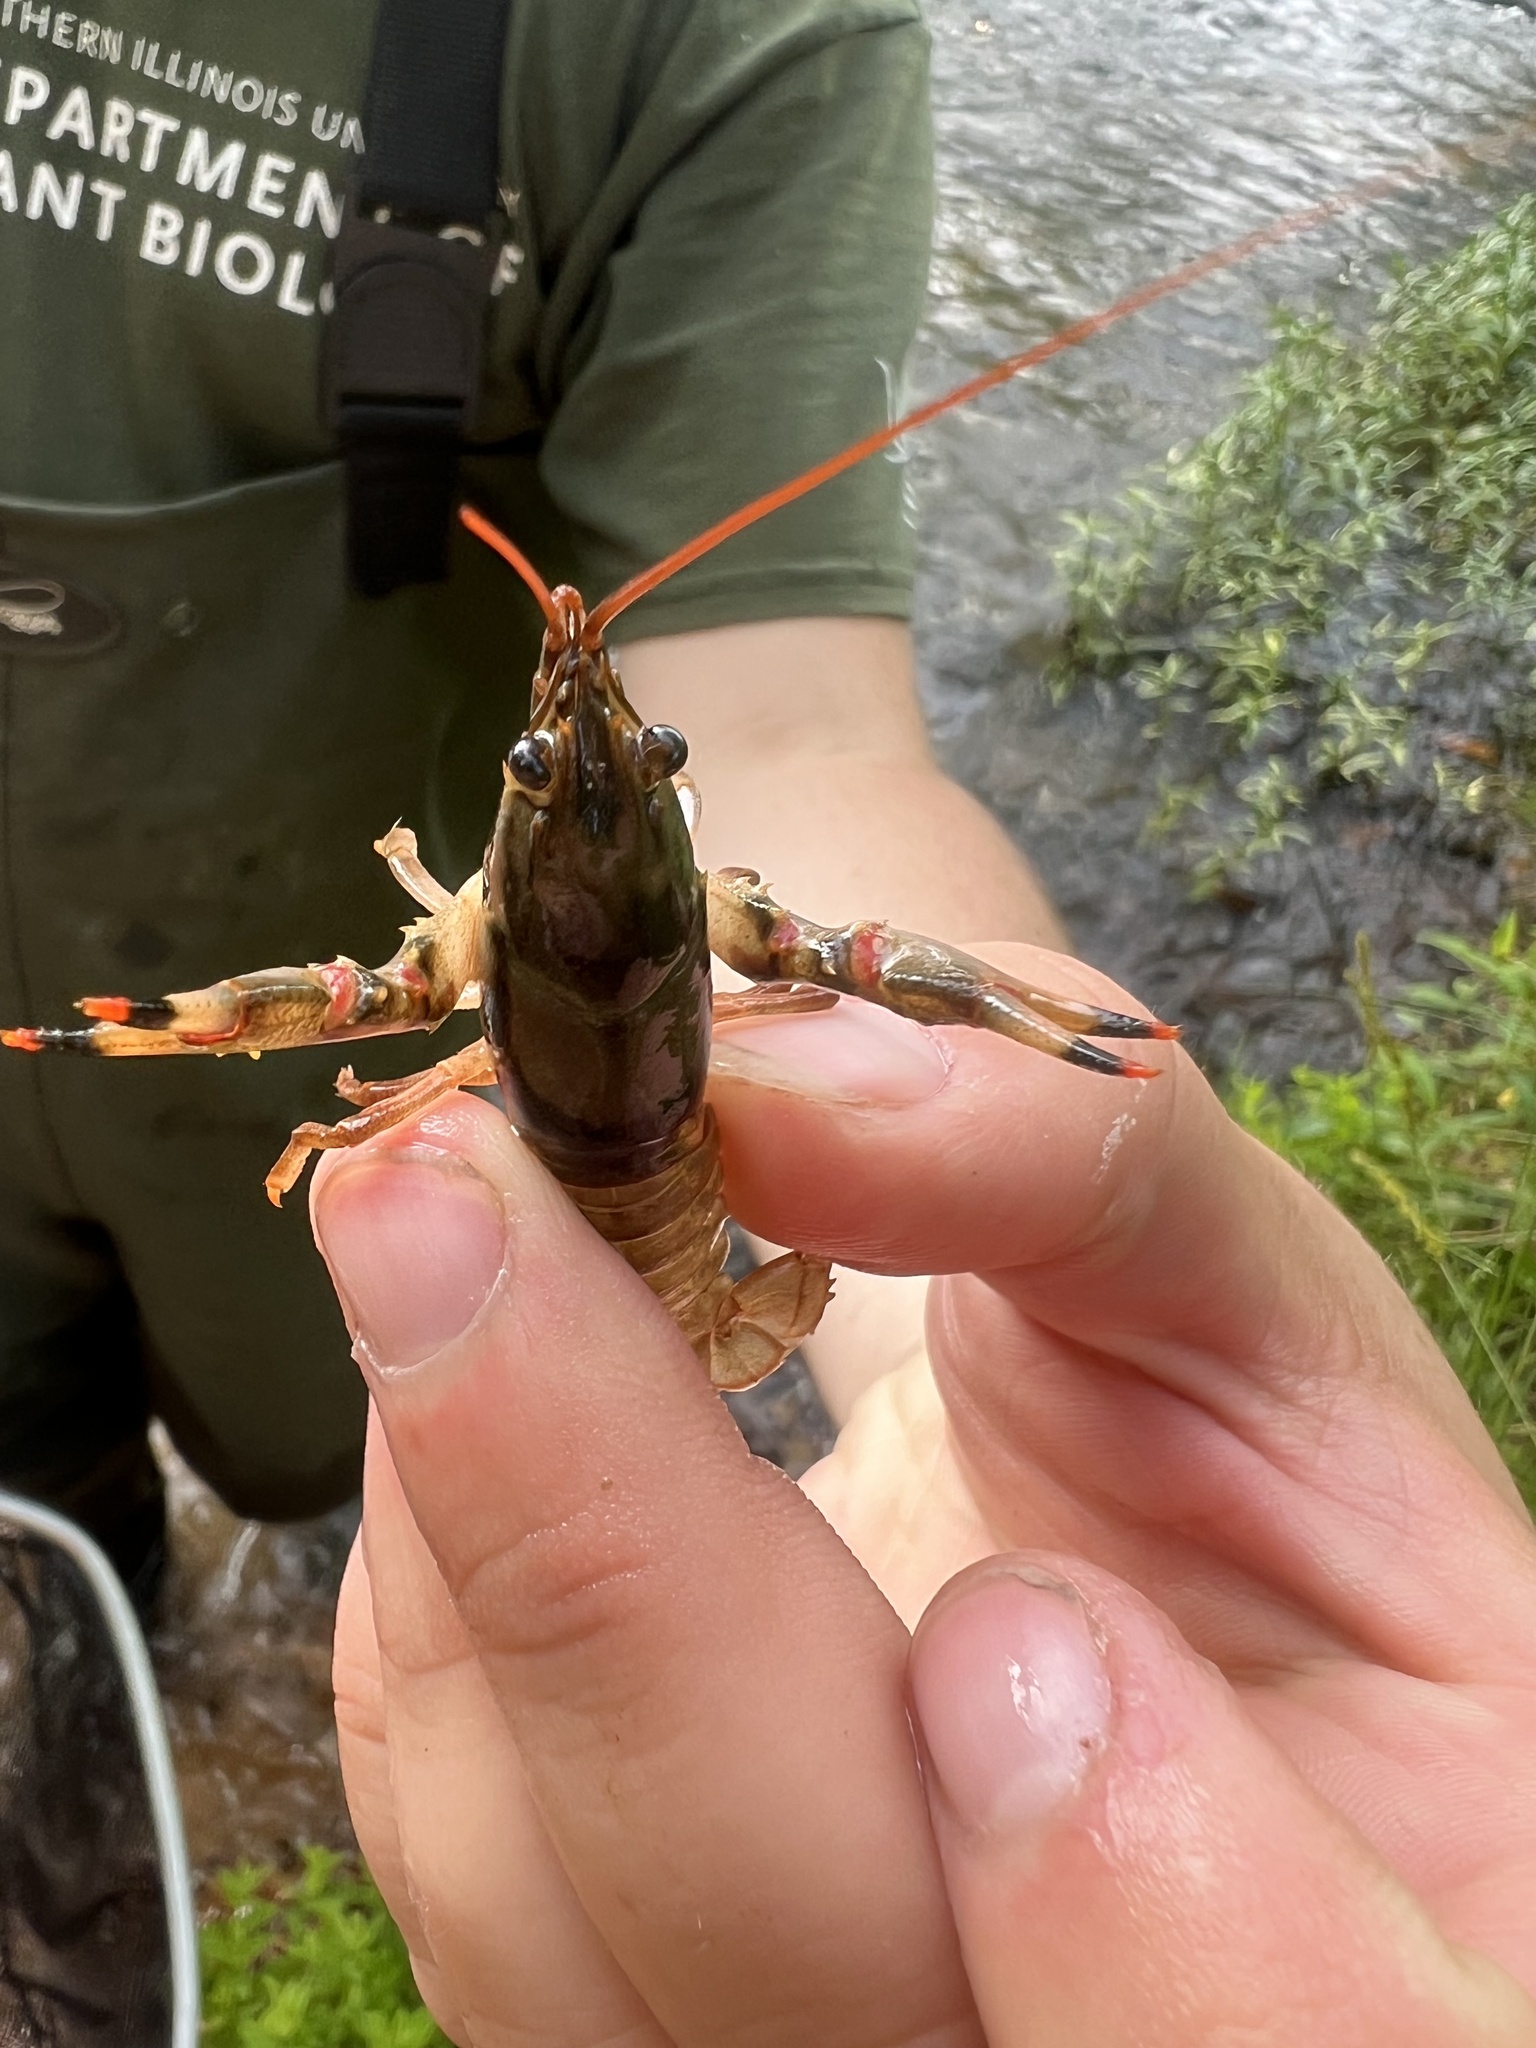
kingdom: Animalia
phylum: Arthropoda
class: Malacostraca
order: Decapoda
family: Cambaridae
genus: Faxonius
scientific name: Faxonius durelli
